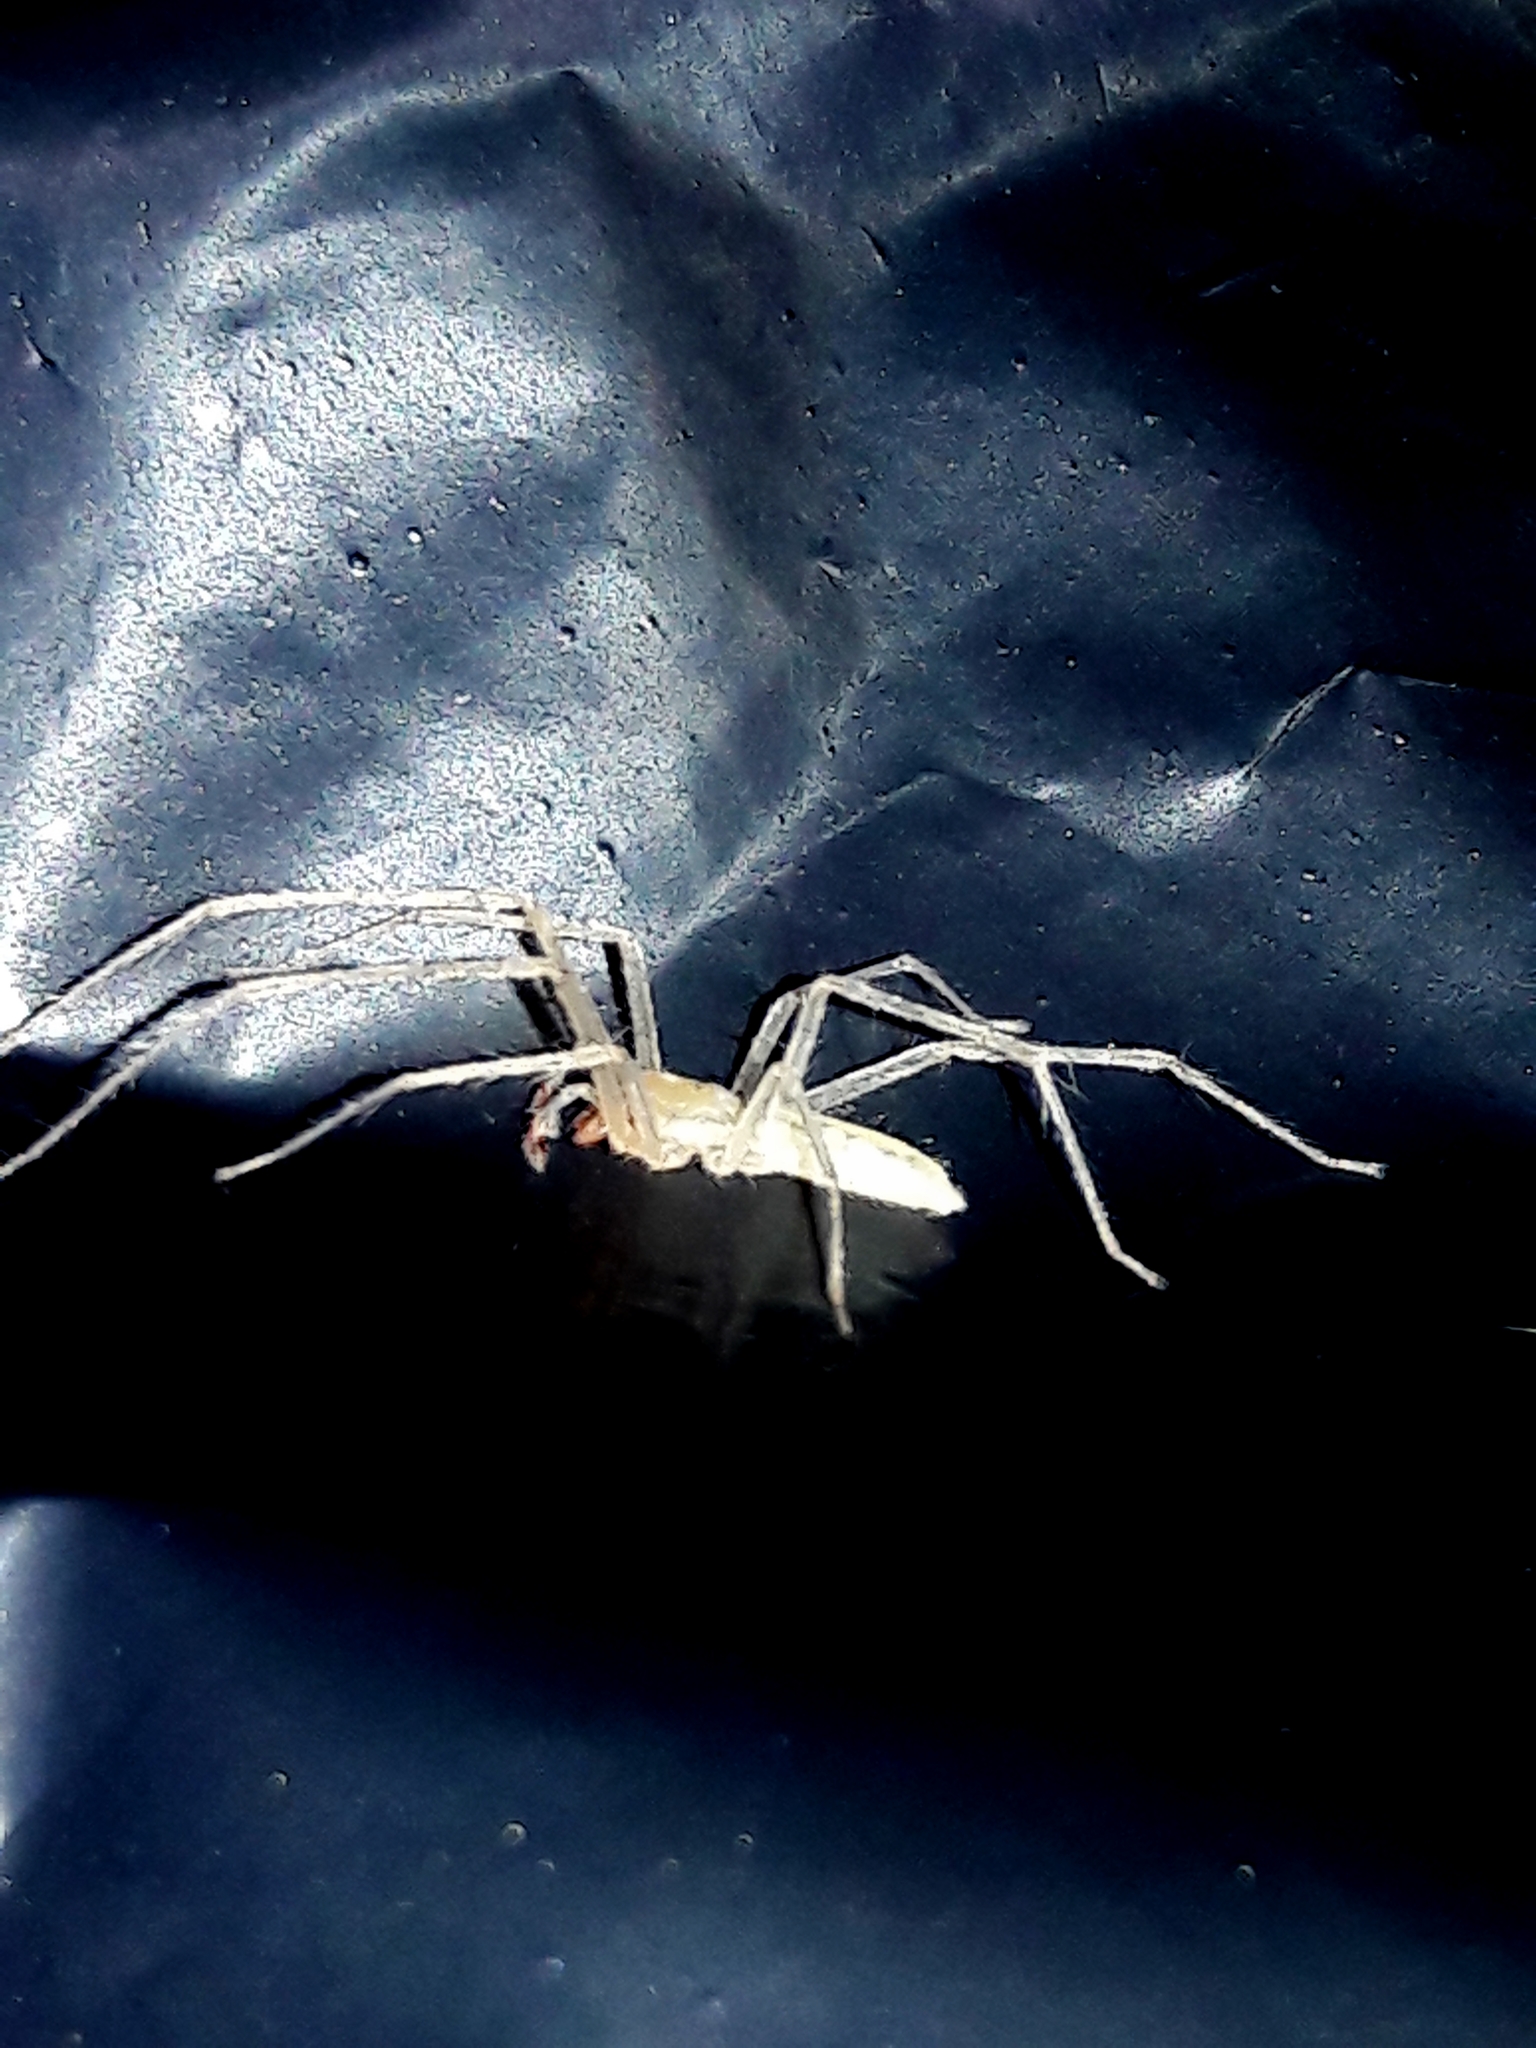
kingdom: Animalia
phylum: Arthropoda
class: Arachnida
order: Araneae
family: Anyphaenidae
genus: Osoriella
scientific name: Osoriella tahela
